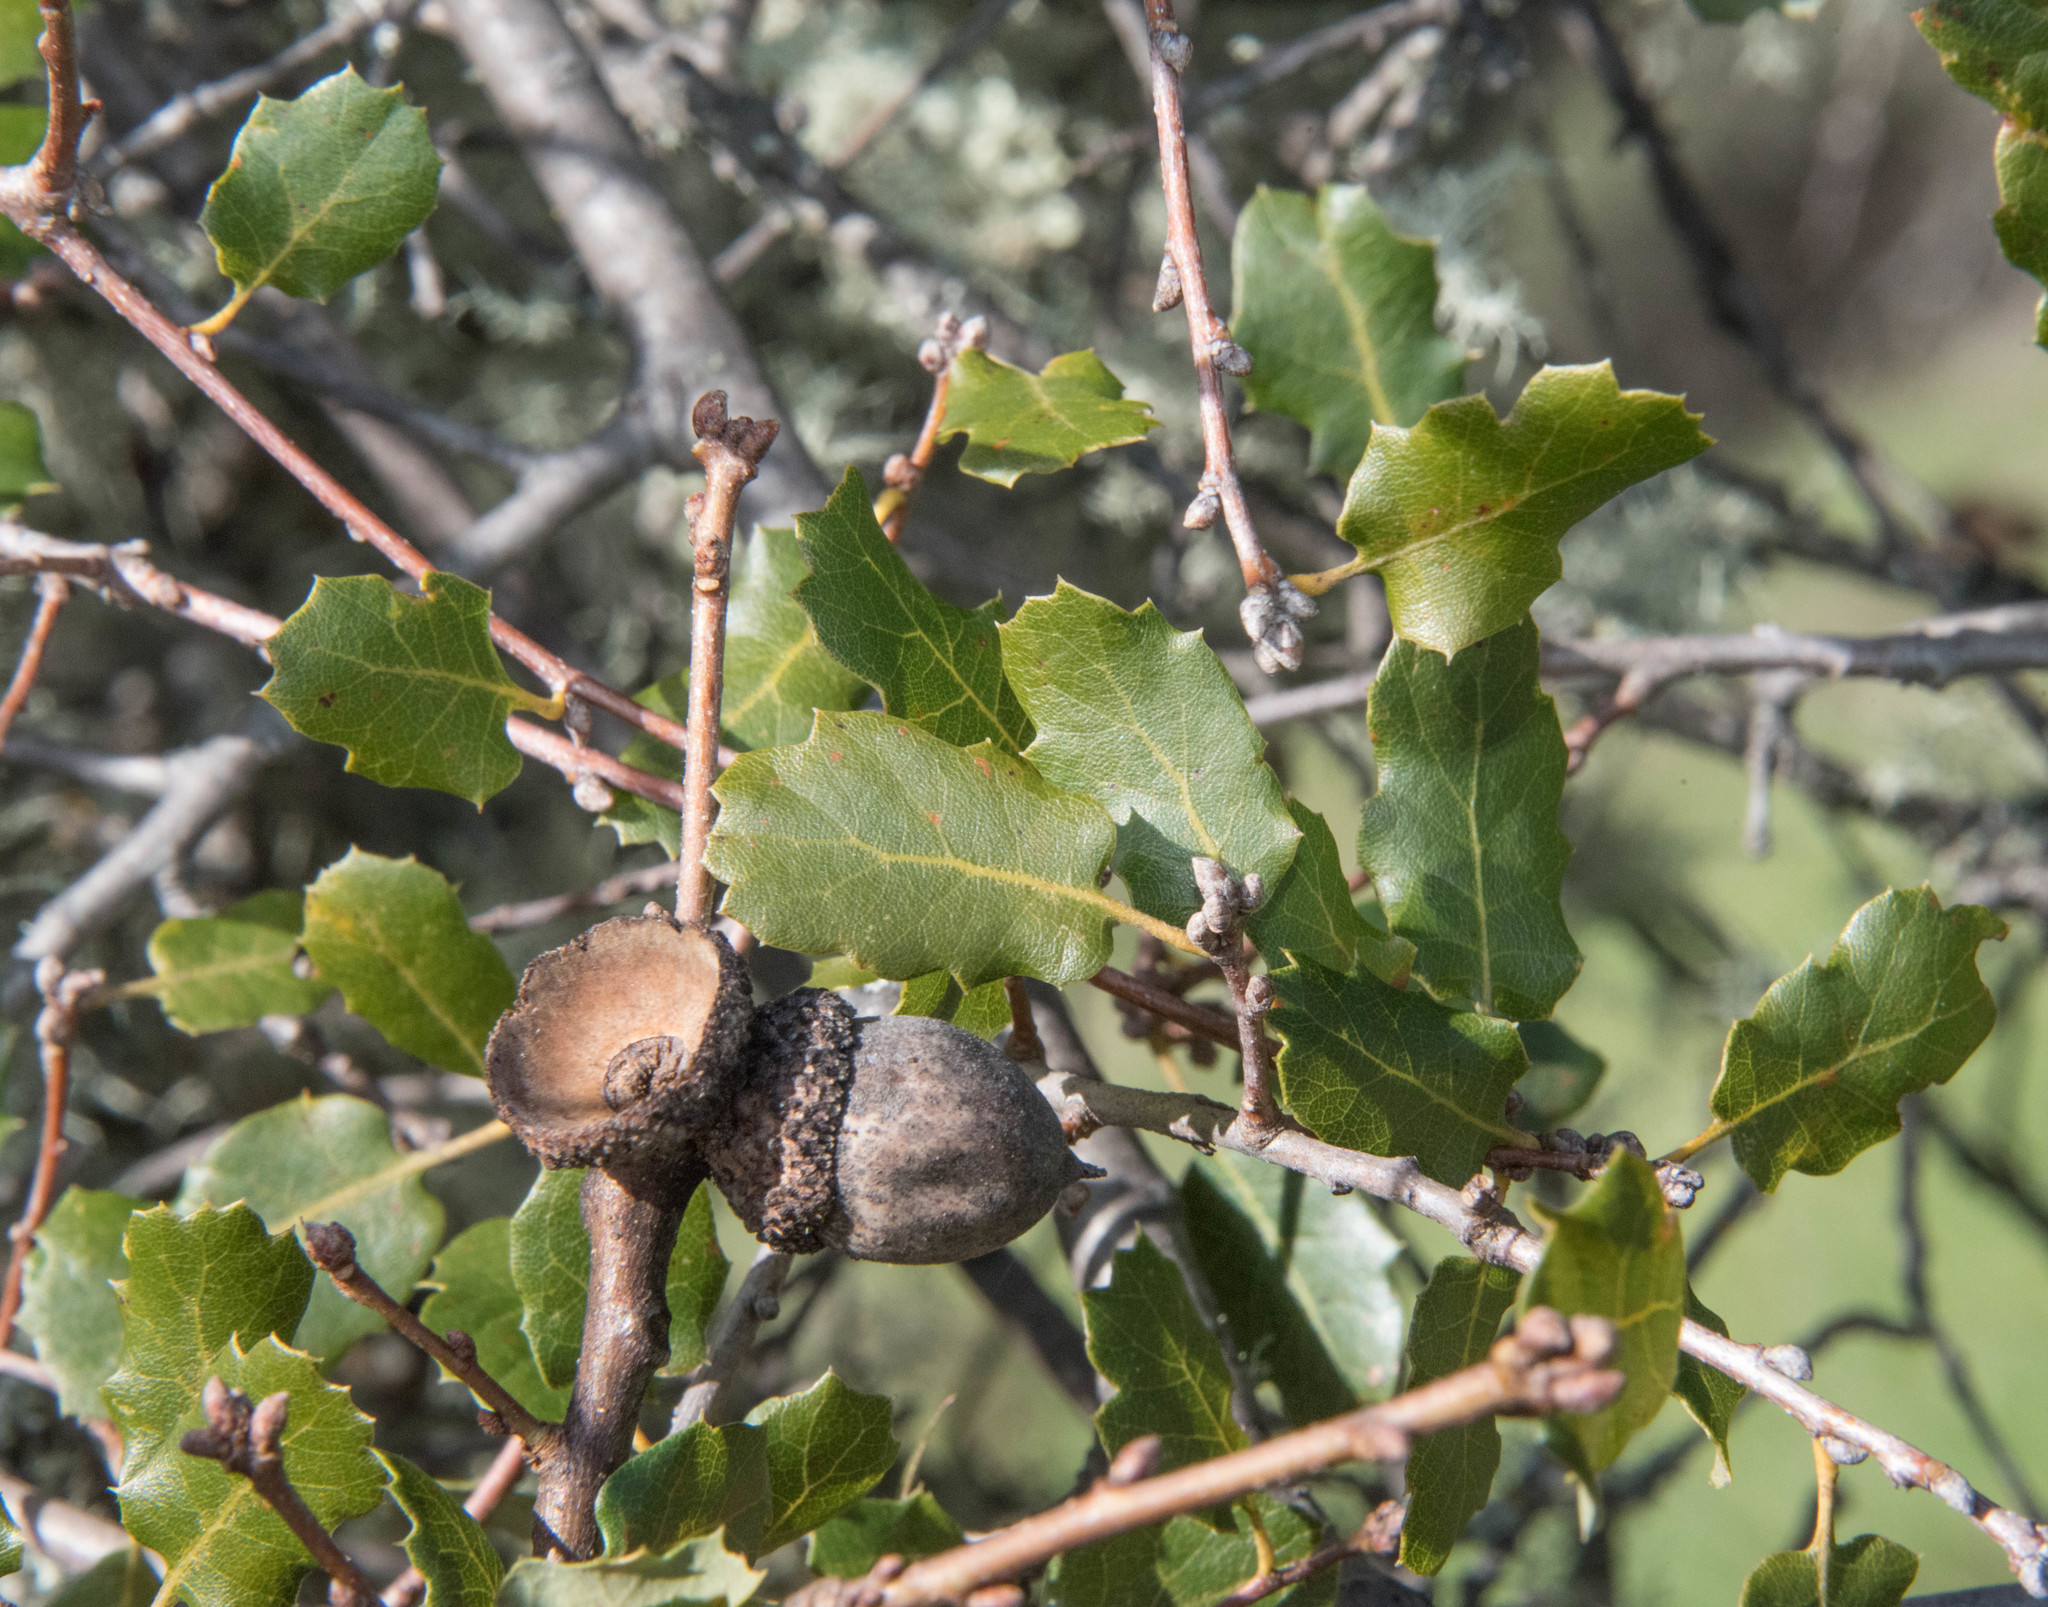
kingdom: Plantae
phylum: Tracheophyta
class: Magnoliopsida
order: Fagales
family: Fagaceae
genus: Quercus
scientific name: Quercus berberidifolia
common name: California scrub oak
